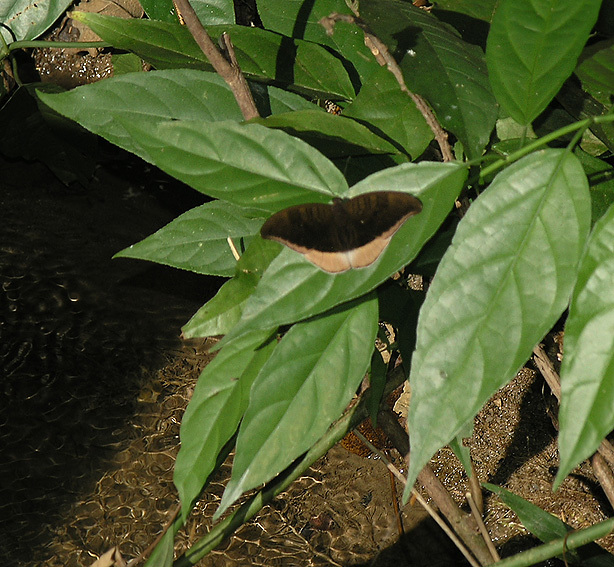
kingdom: Animalia
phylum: Arthropoda
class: Insecta
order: Lepidoptera
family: Nymphalidae
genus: Tanaecia
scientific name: Tanaecia lepidea
